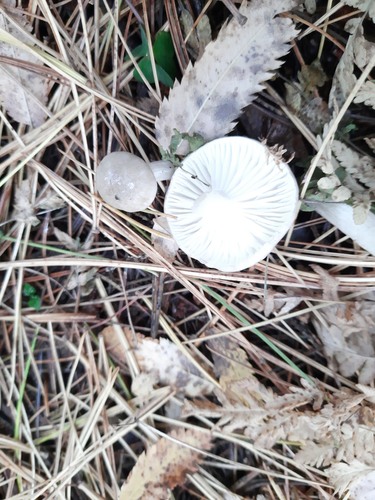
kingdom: Fungi
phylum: Basidiomycota
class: Agaricomycetes
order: Agaricales
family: Hygrophoraceae
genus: Hygrophorus
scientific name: Hygrophorus
